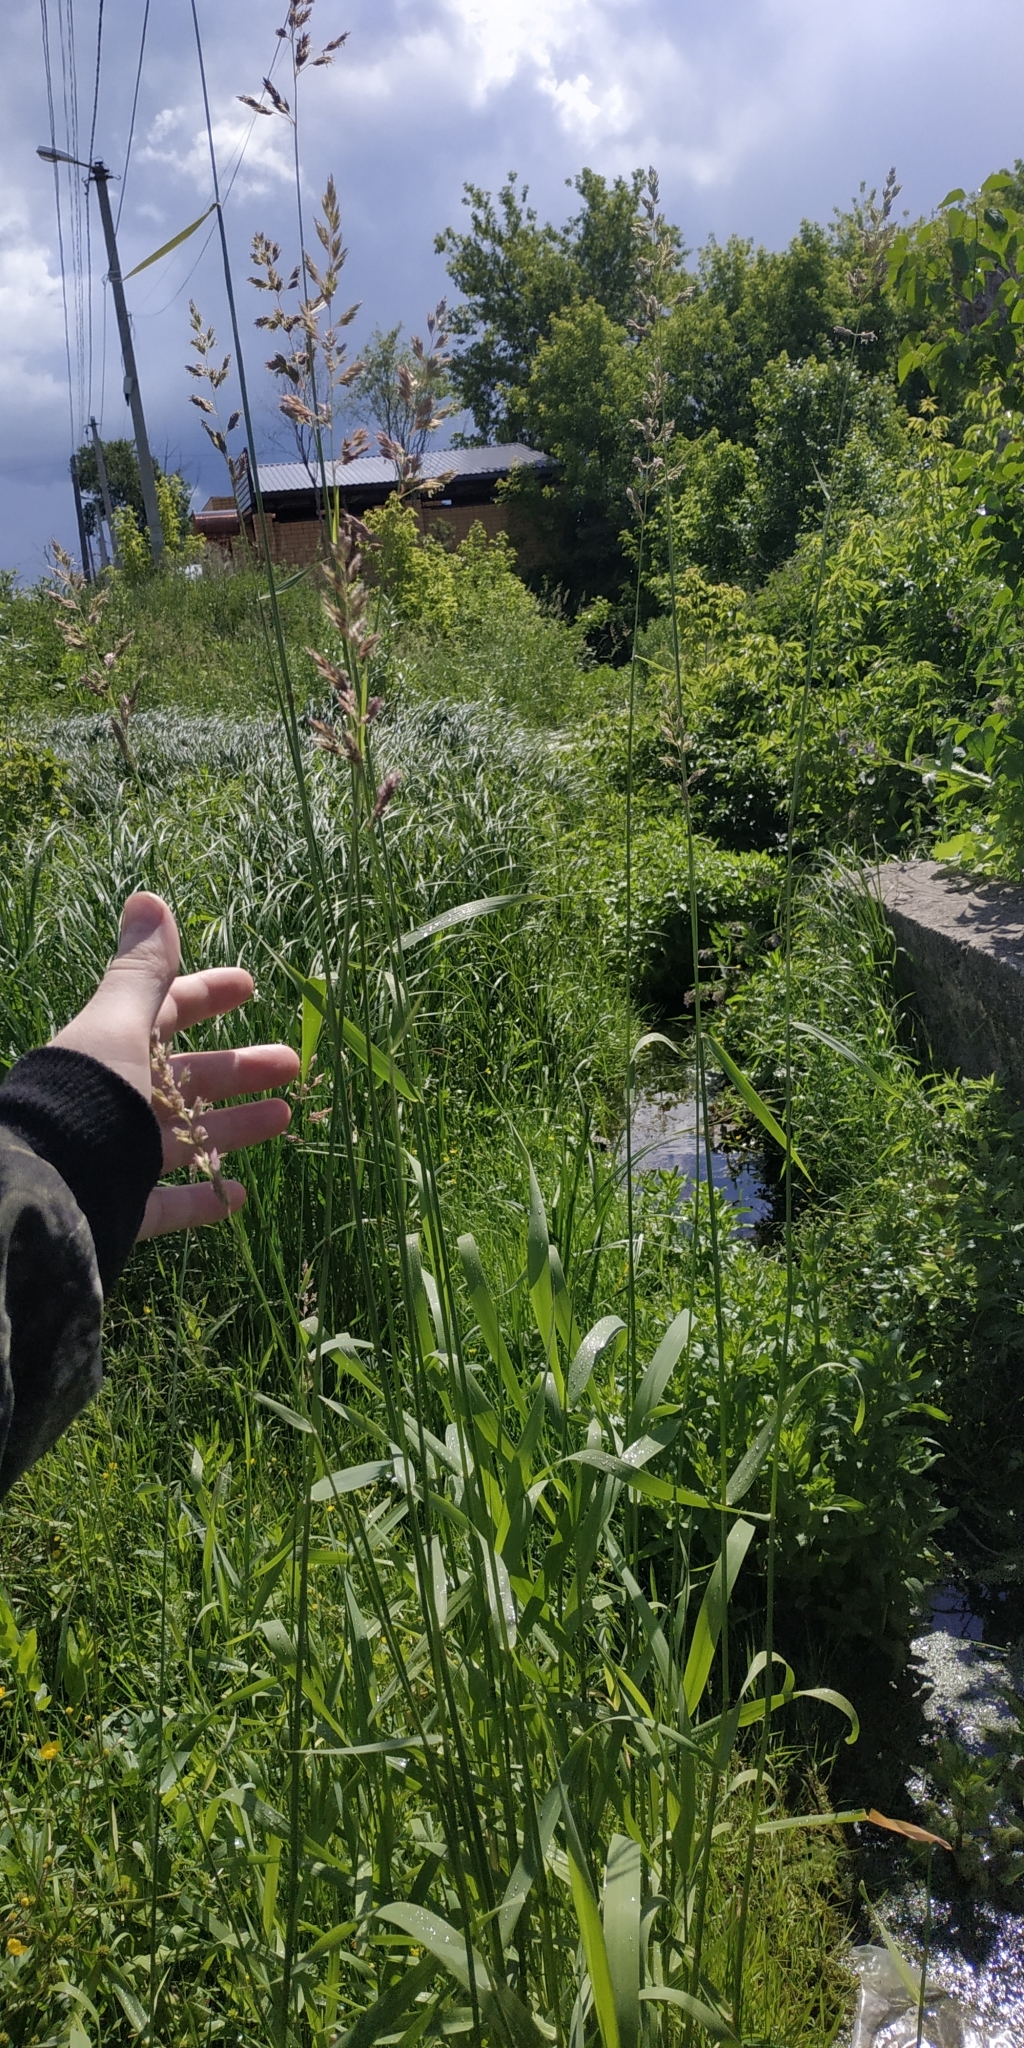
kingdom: Plantae
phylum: Tracheophyta
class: Liliopsida
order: Poales
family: Poaceae
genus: Phalaris
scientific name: Phalaris arundinacea
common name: Reed canary-grass
